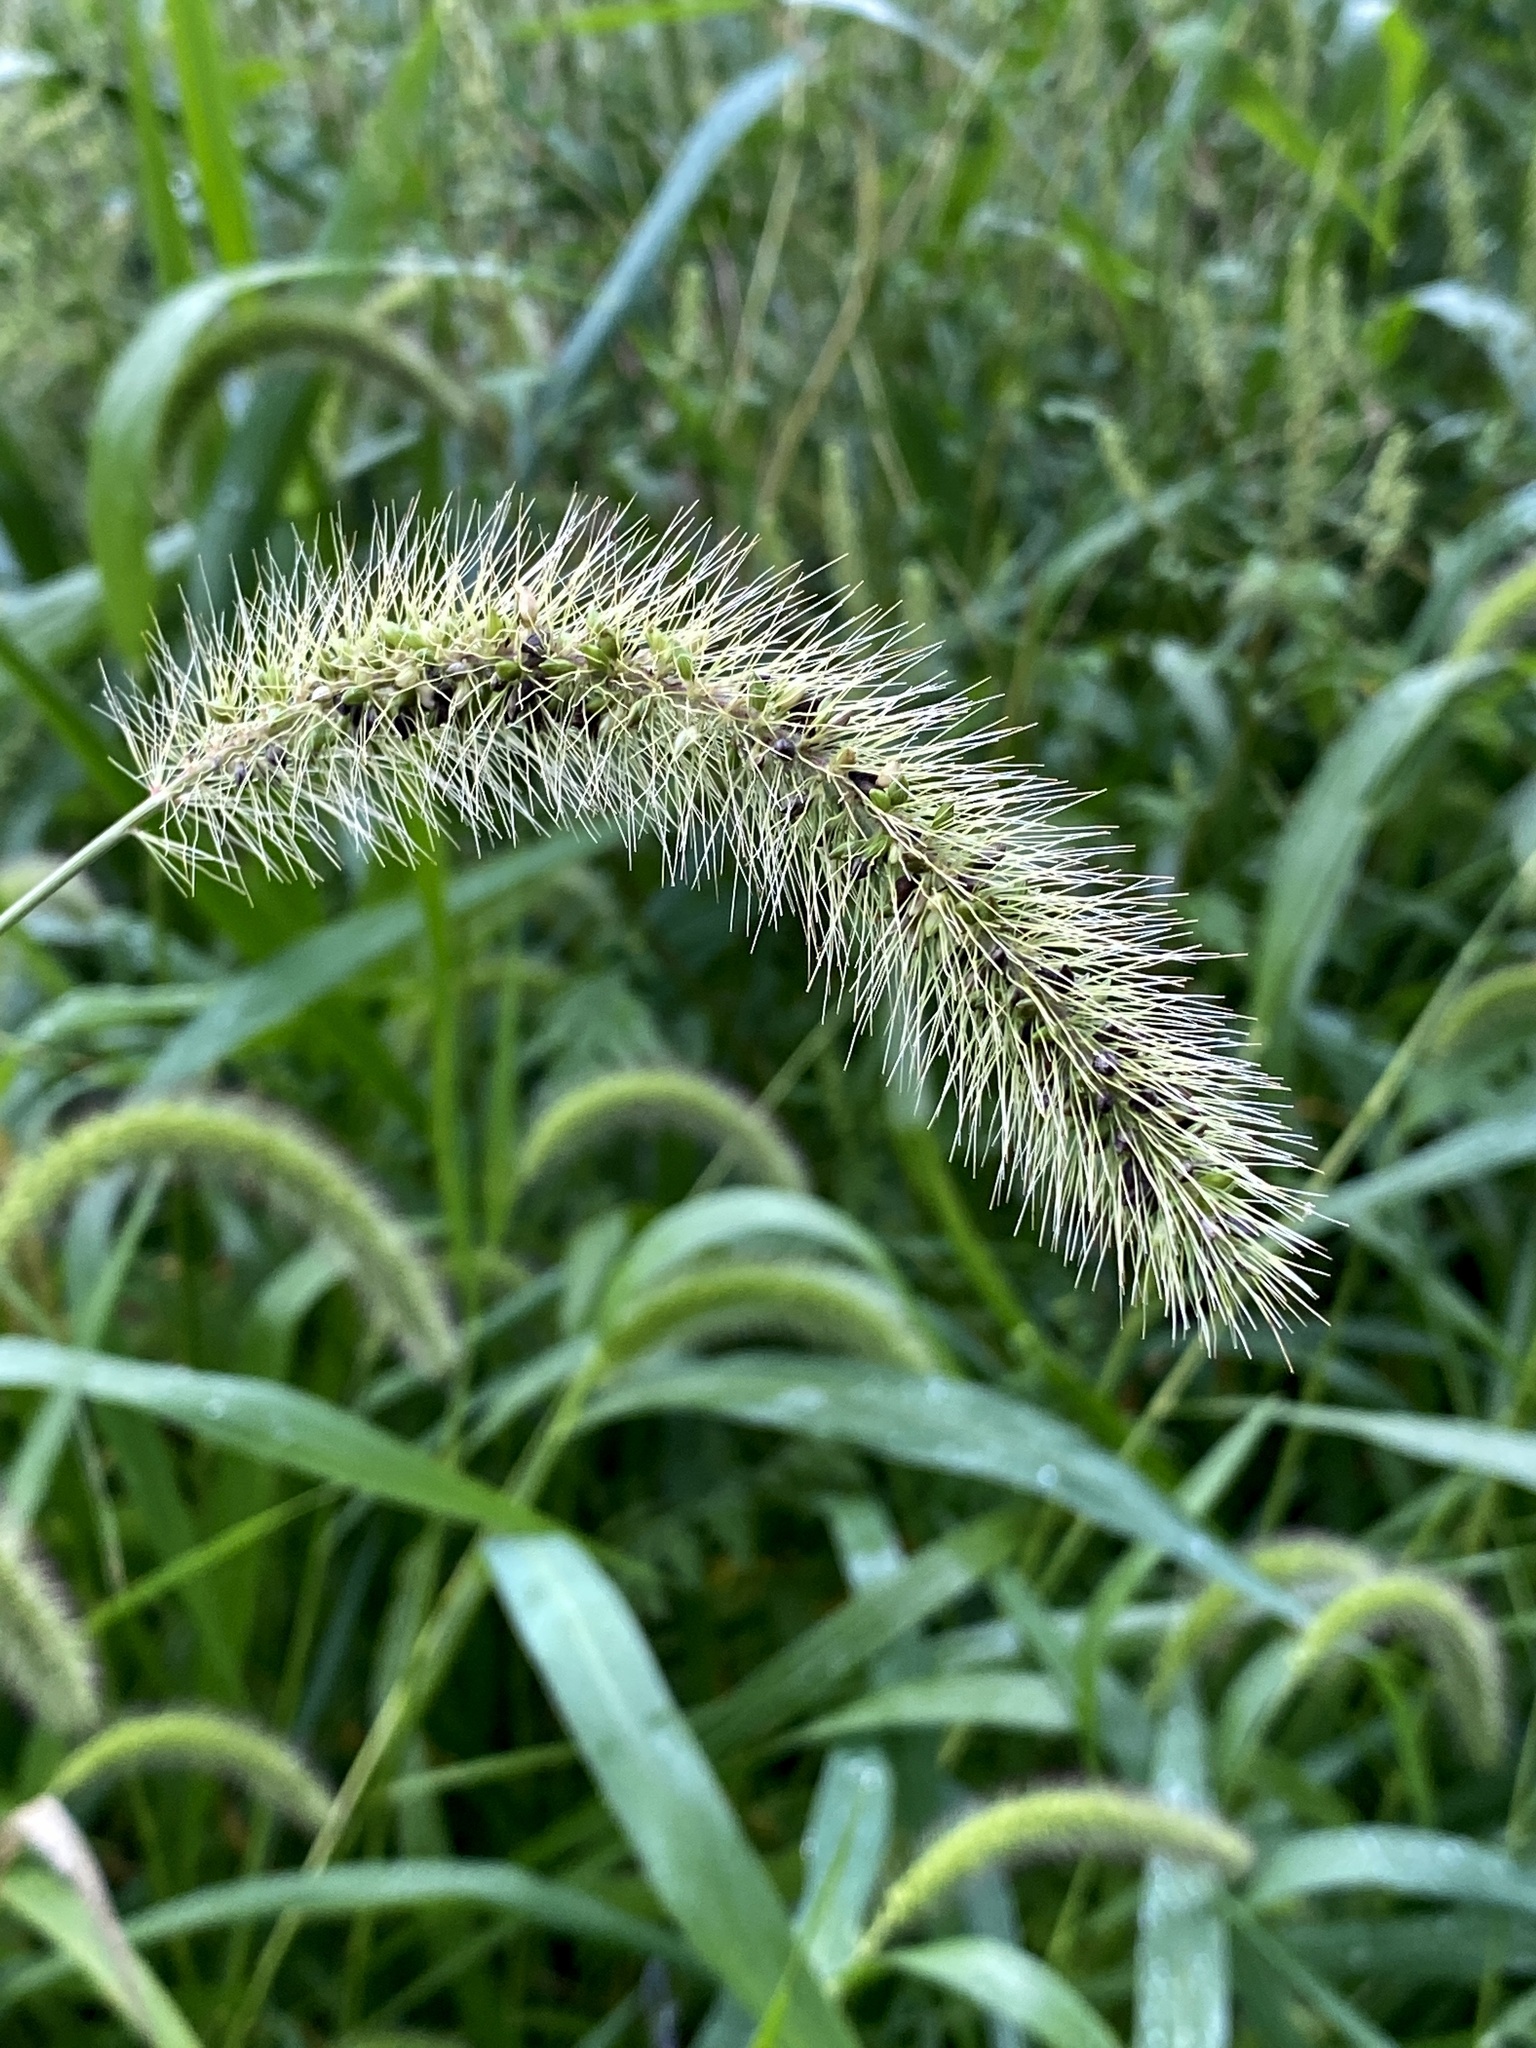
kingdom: Plantae
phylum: Tracheophyta
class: Liliopsida
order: Poales
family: Poaceae
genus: Setaria
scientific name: Setaria faberi
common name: Nodding bristle-grass
